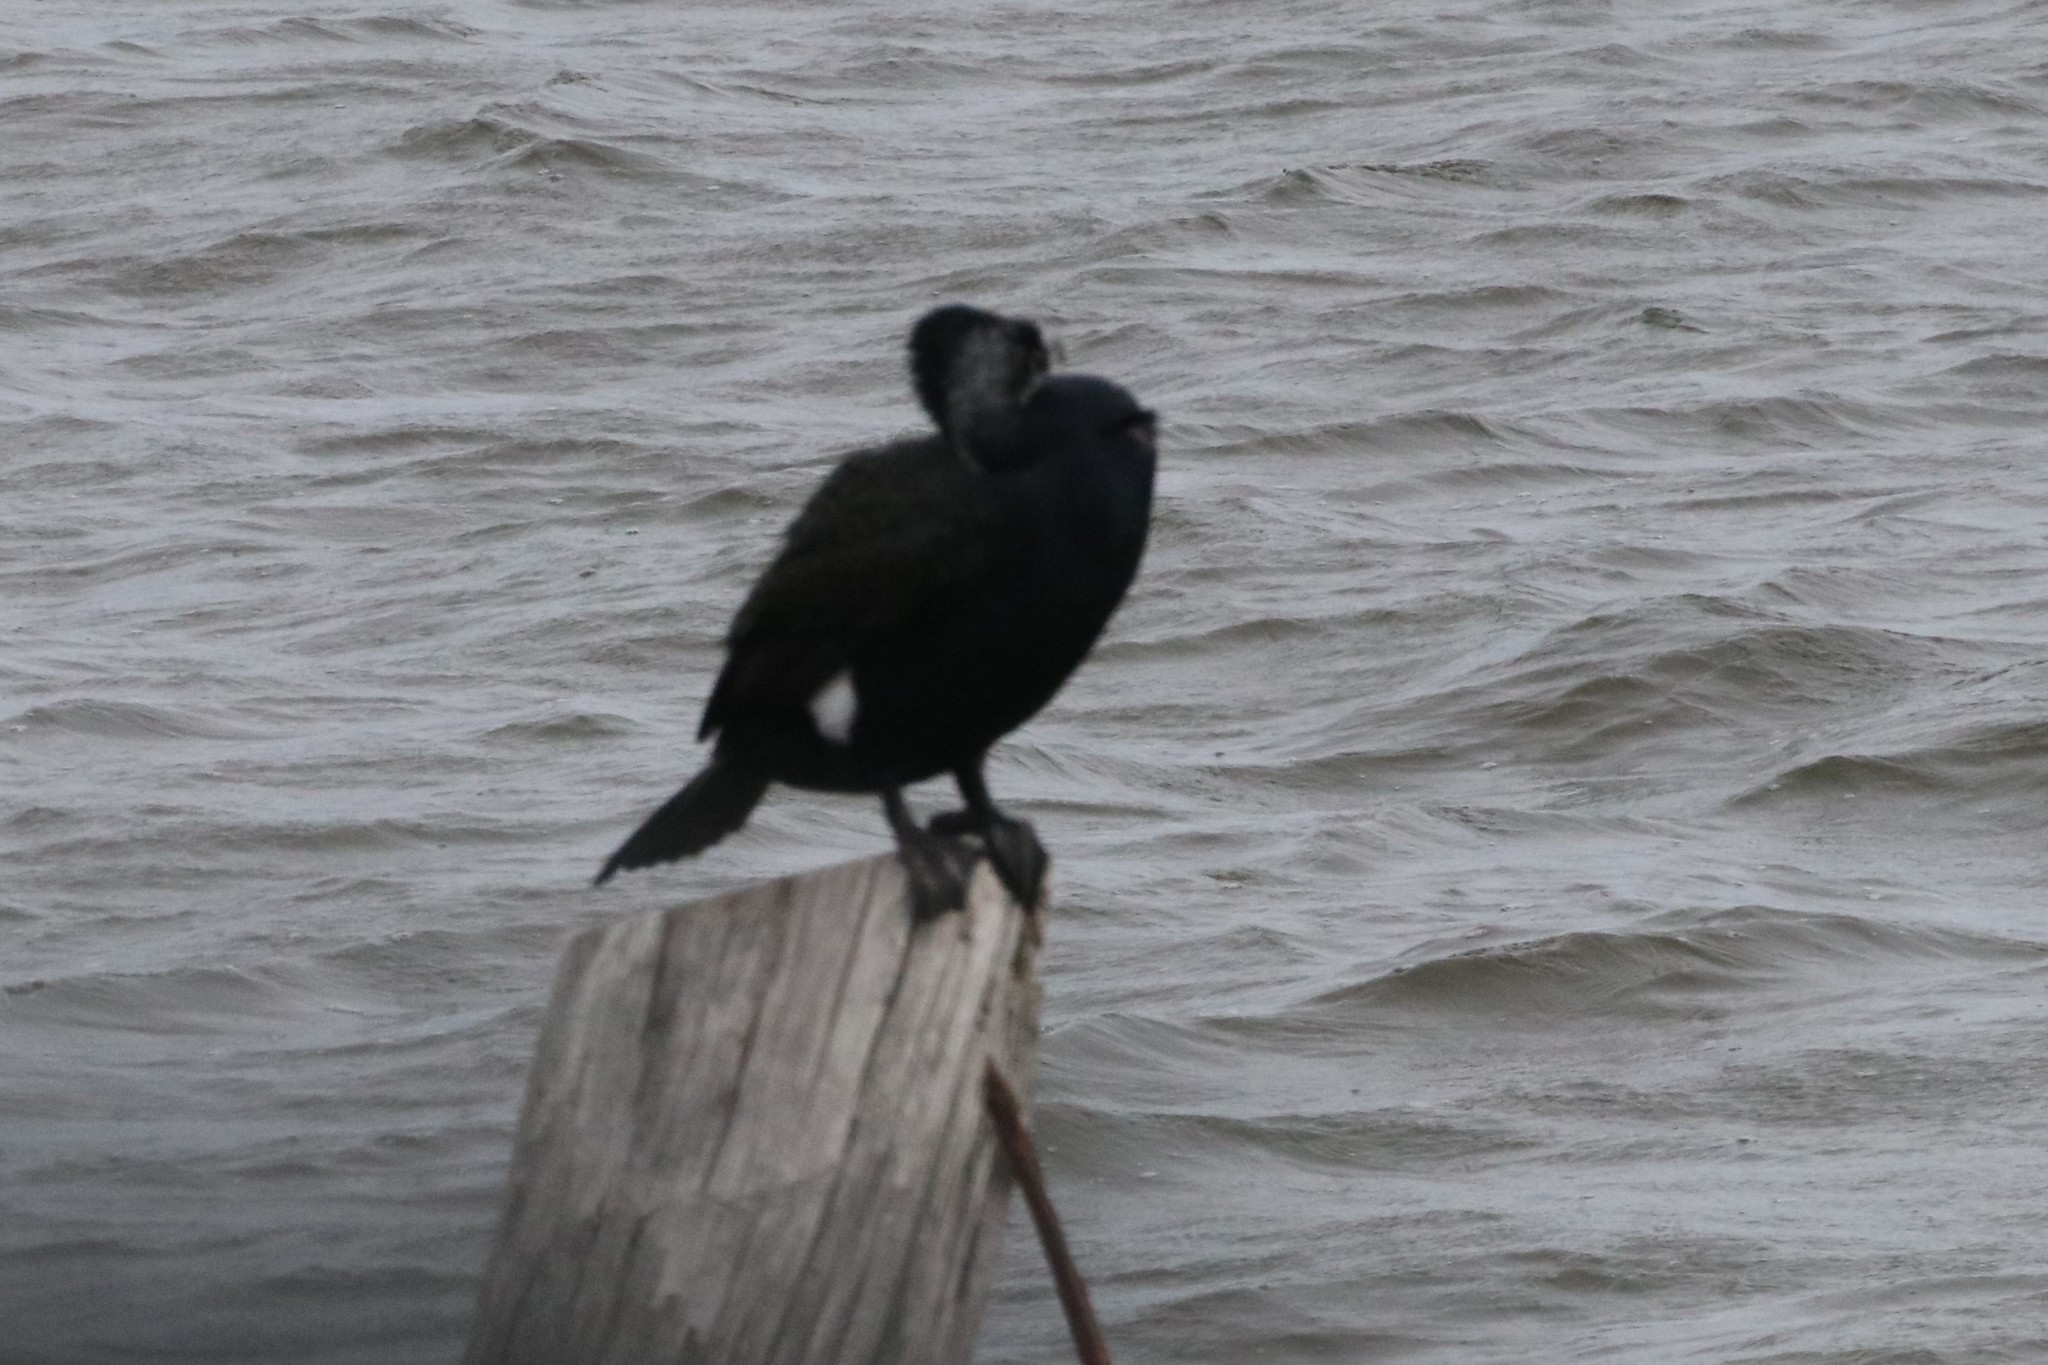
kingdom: Animalia
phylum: Chordata
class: Aves
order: Suliformes
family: Phalacrocoracidae
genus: Phalacrocorax
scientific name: Phalacrocorax carbo
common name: Great cormorant
